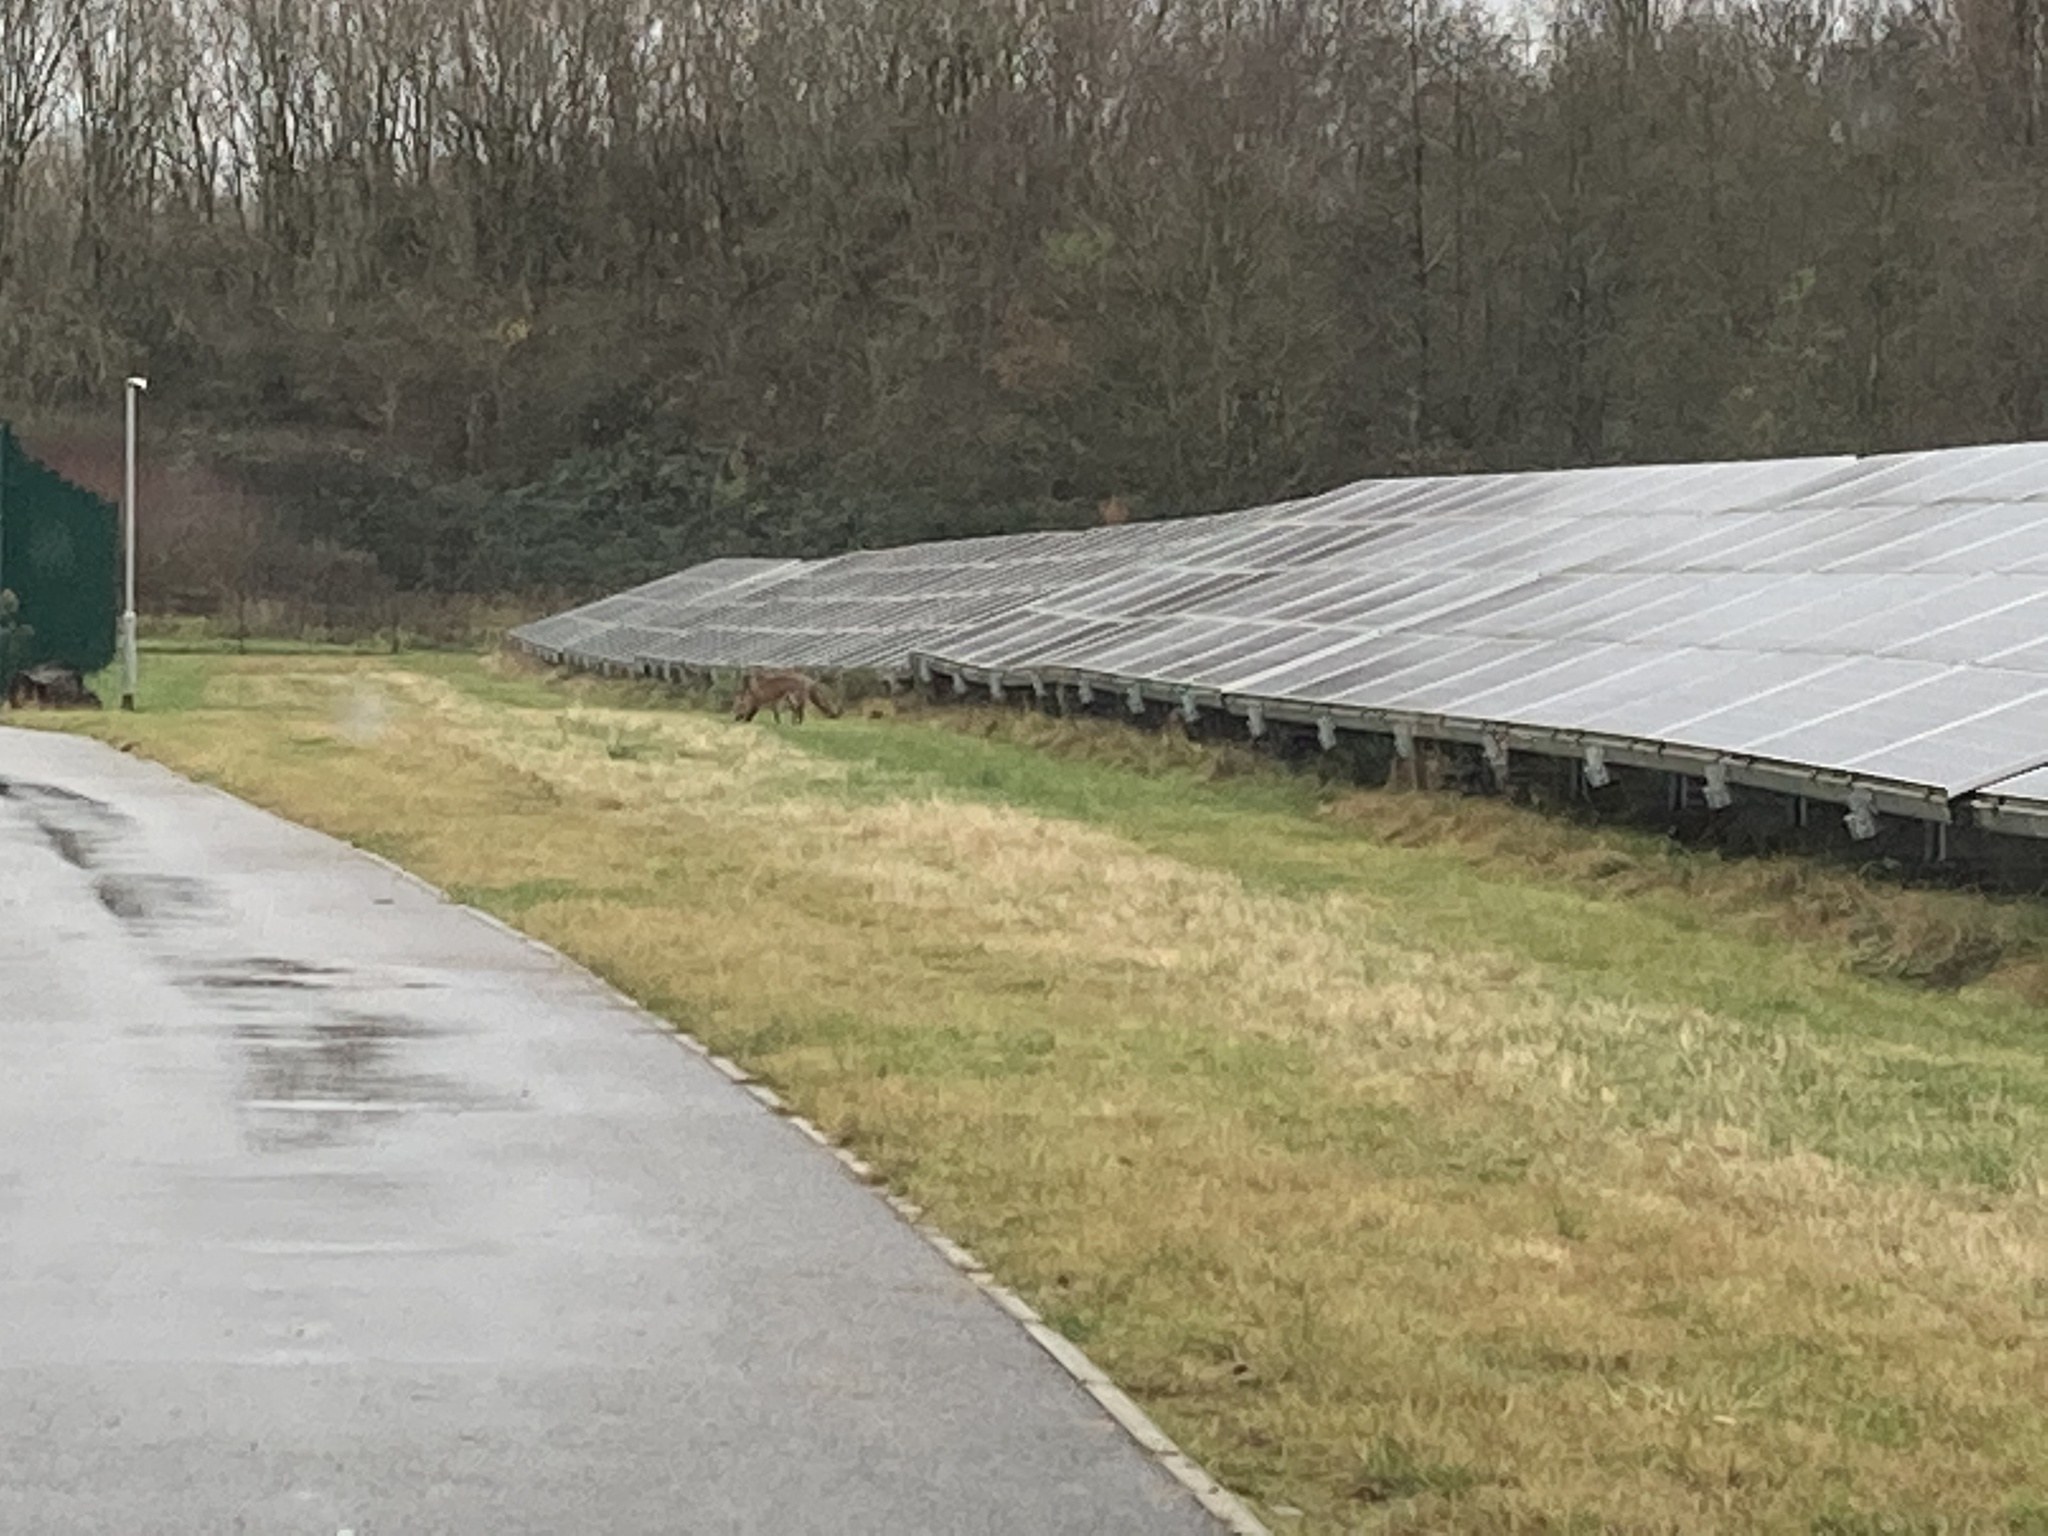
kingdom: Animalia
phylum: Chordata
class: Mammalia
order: Carnivora
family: Canidae
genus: Vulpes
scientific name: Vulpes vulpes
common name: Red fox
